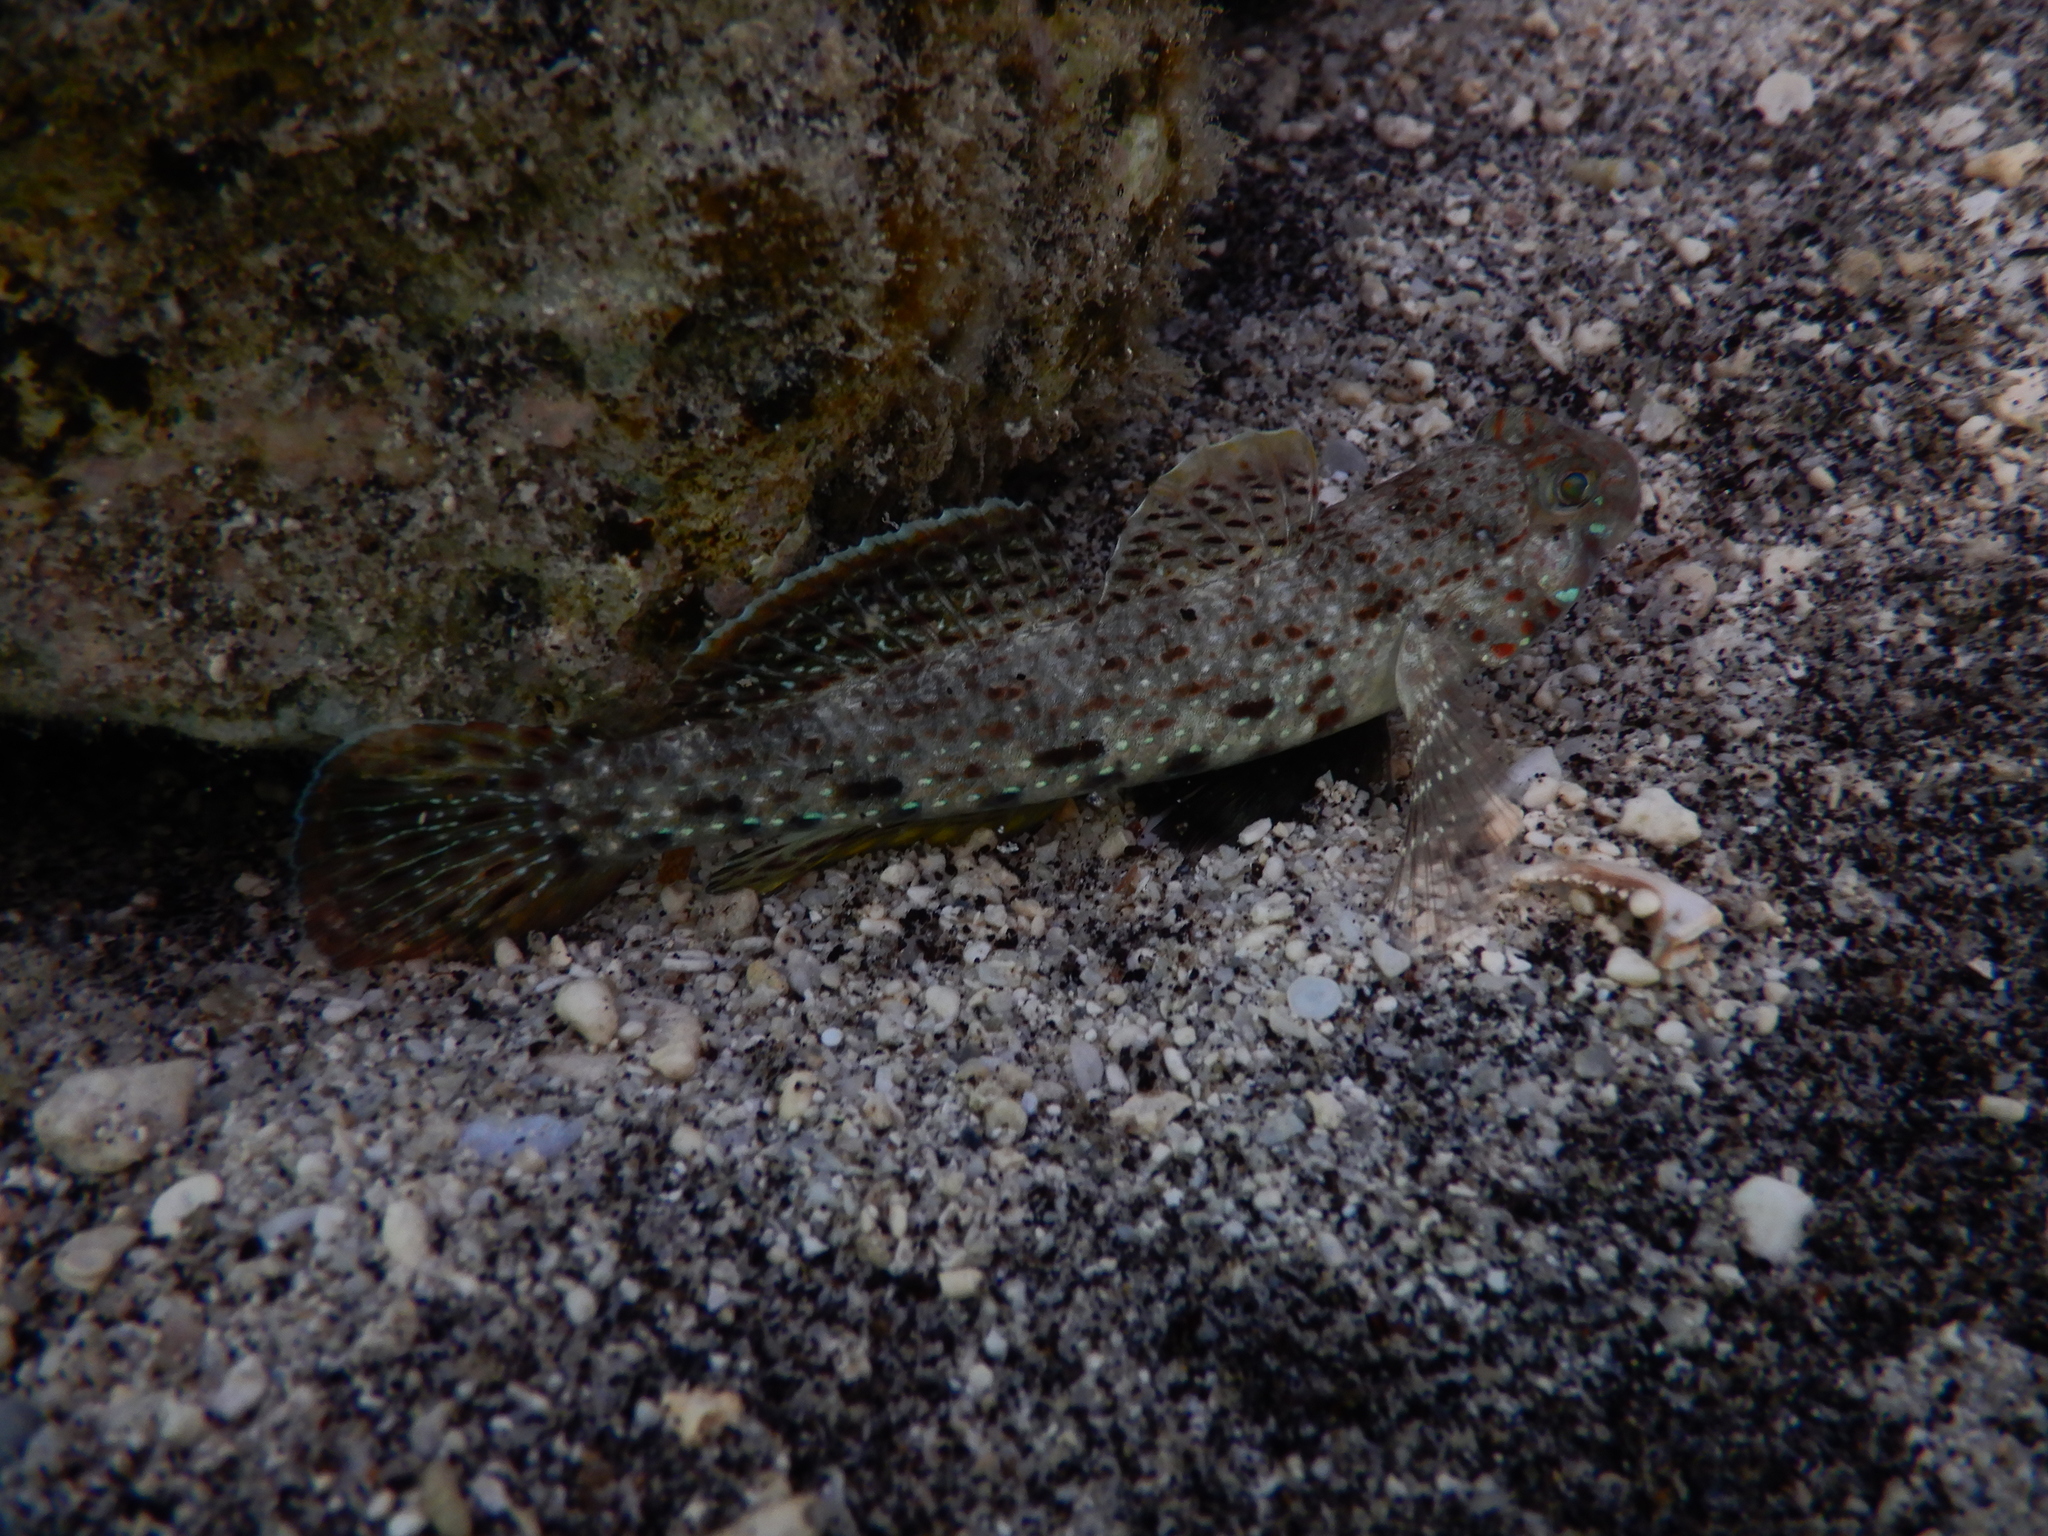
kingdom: Animalia
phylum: Chordata
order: Perciformes
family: Gobiidae
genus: Istigobius
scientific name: Istigobius ornatus
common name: Ornate goby
